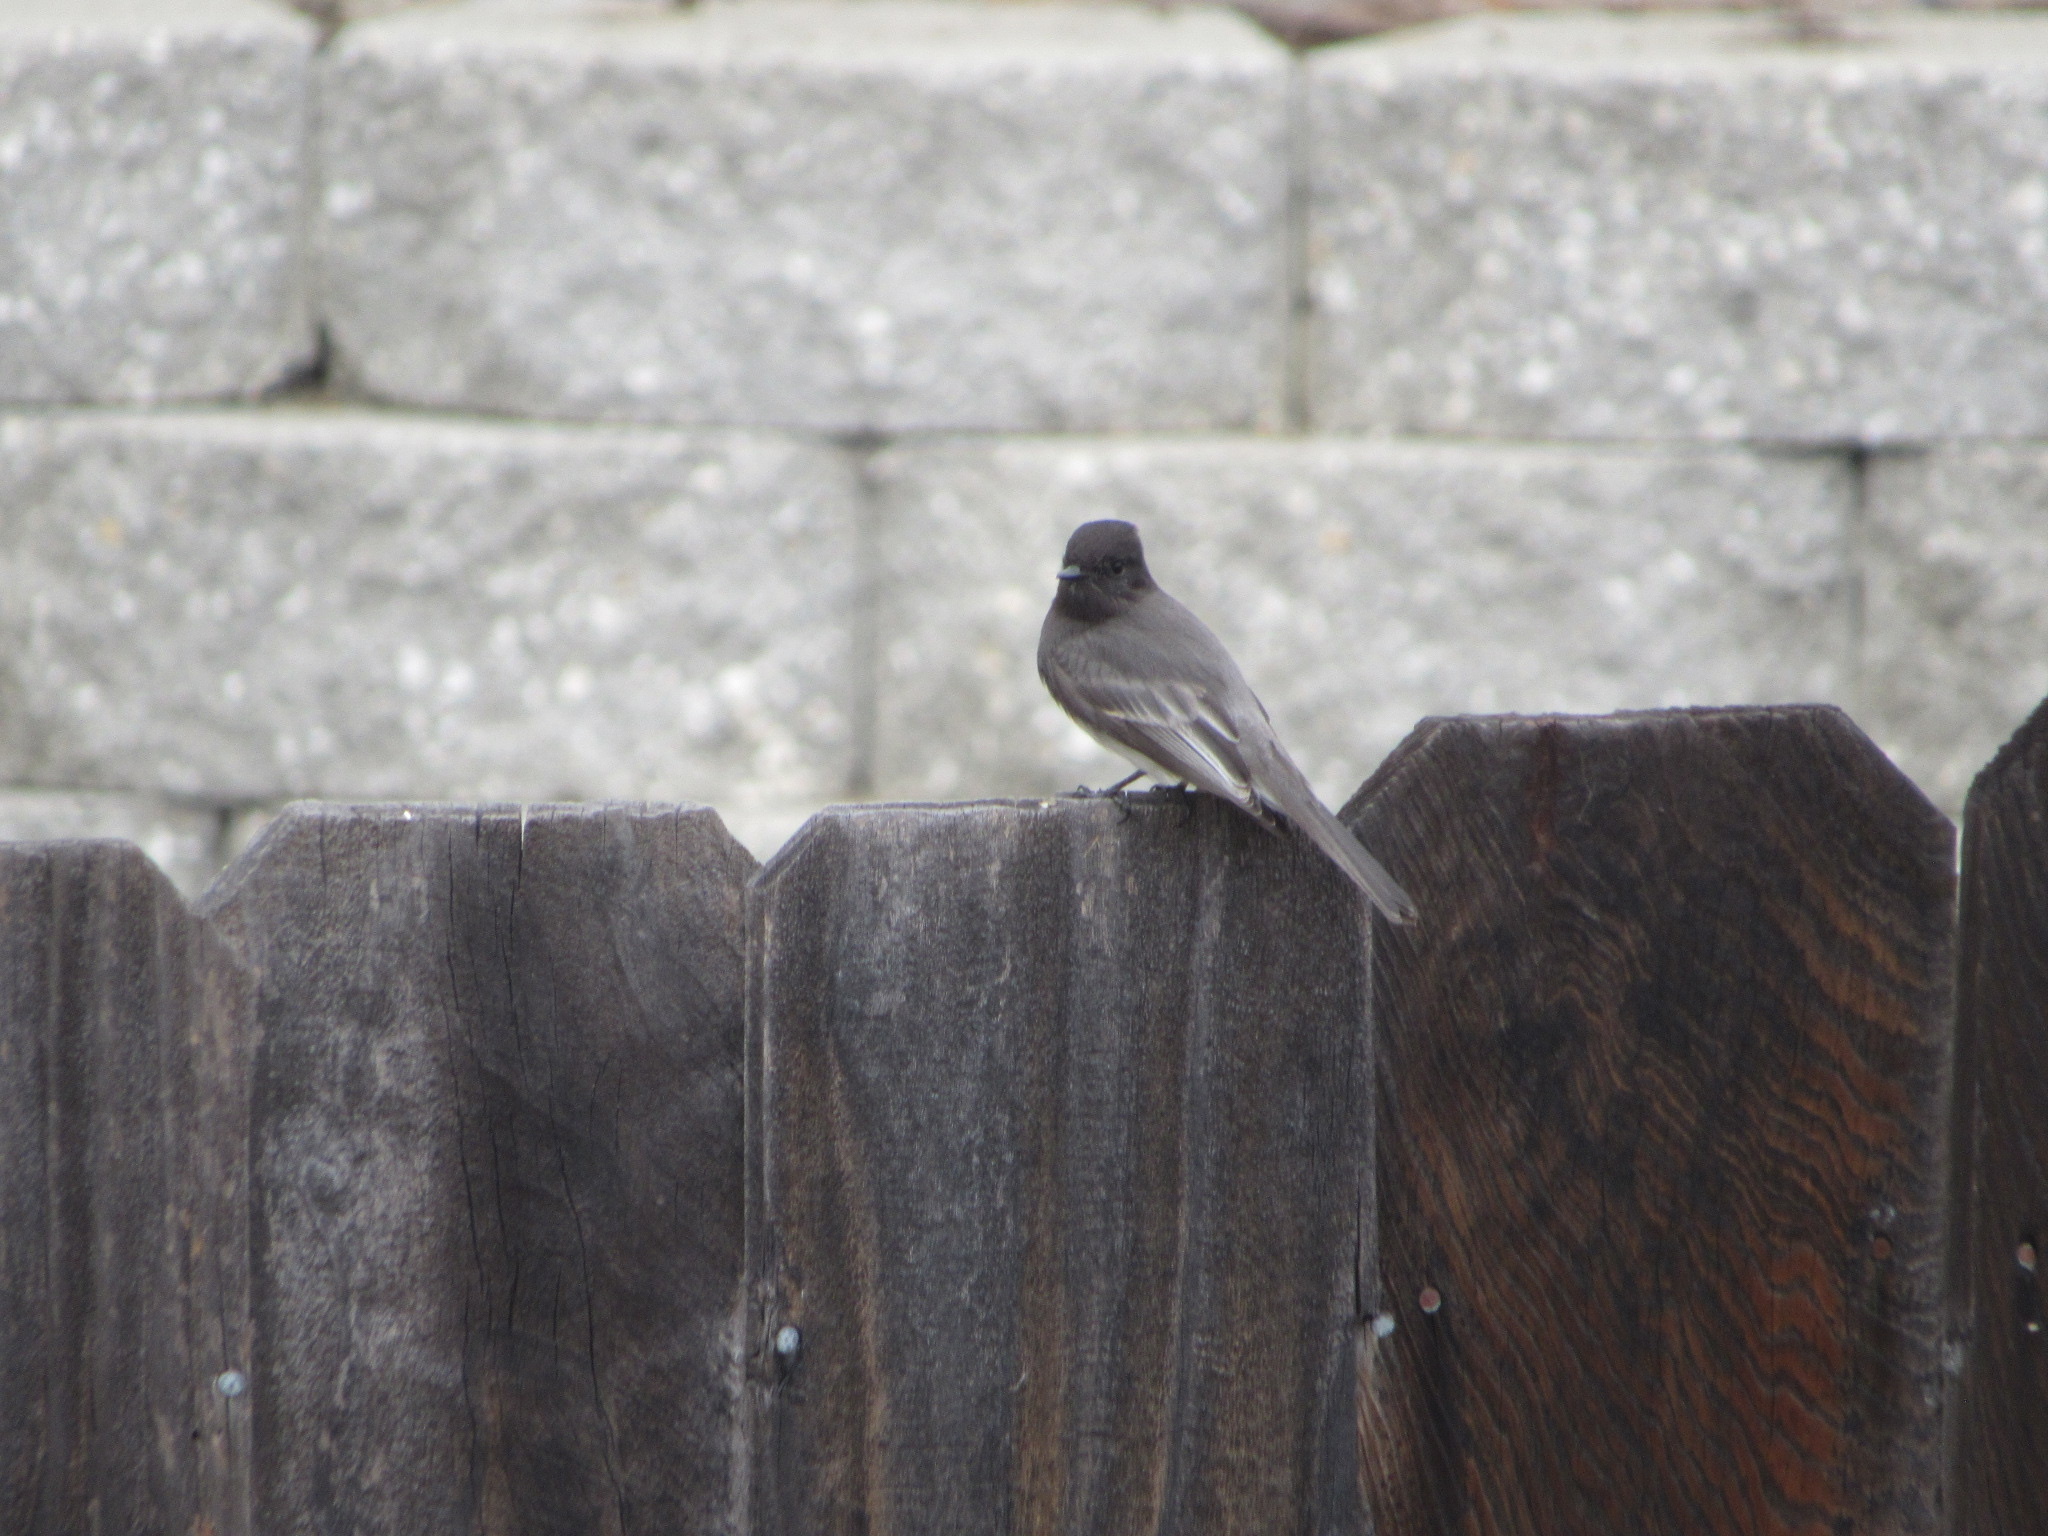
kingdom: Animalia
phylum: Chordata
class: Aves
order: Passeriformes
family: Tyrannidae
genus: Sayornis
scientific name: Sayornis nigricans
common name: Black phoebe
